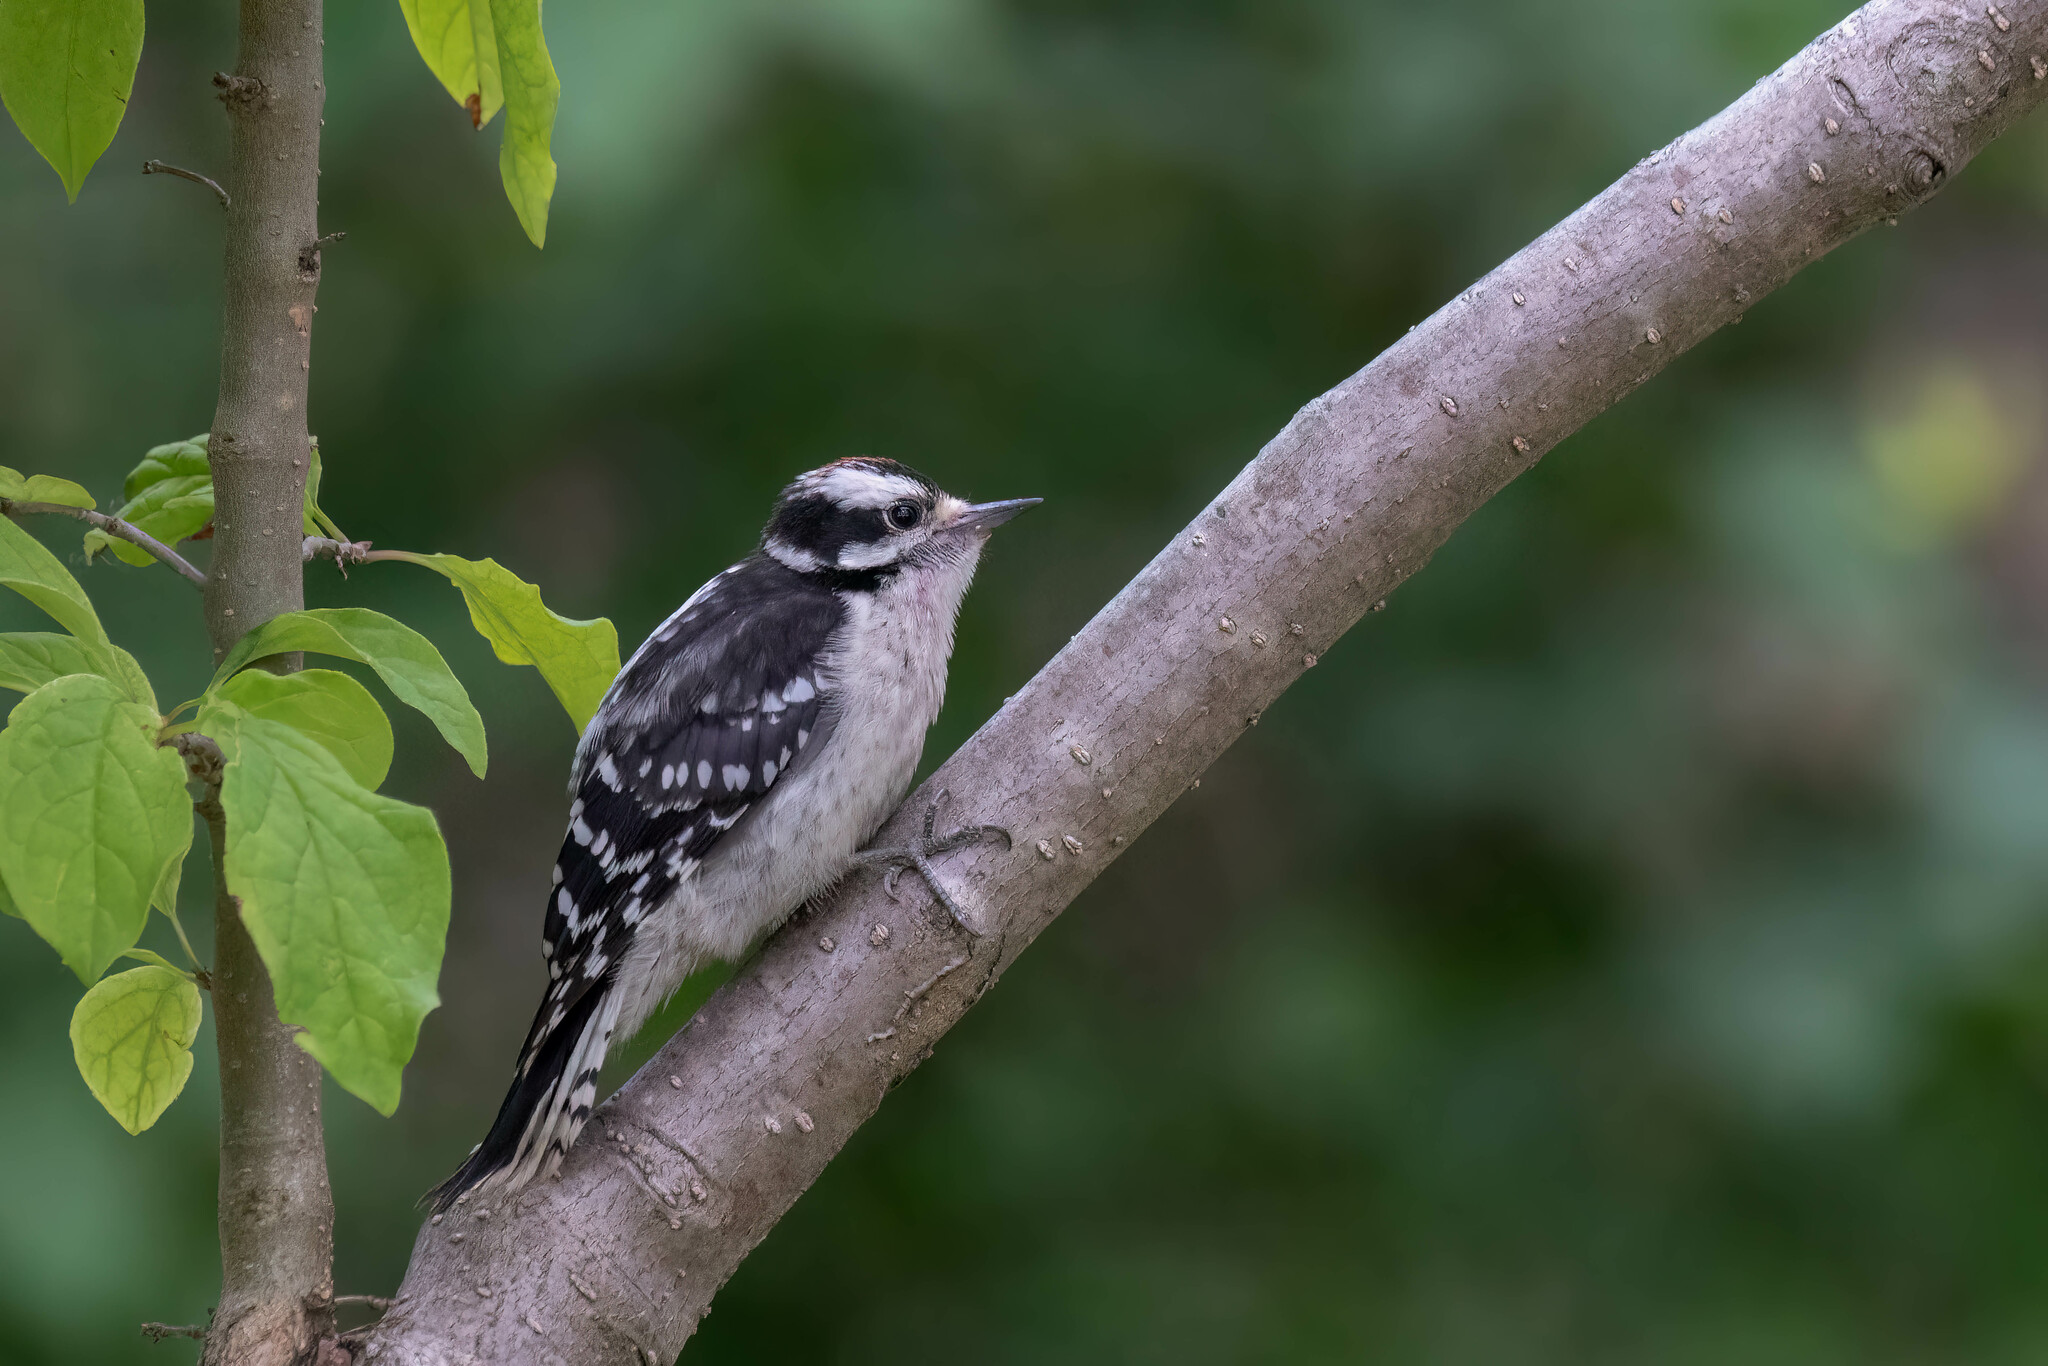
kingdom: Animalia
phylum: Chordata
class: Aves
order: Piciformes
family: Picidae
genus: Dryobates
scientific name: Dryobates pubescens
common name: Downy woodpecker
